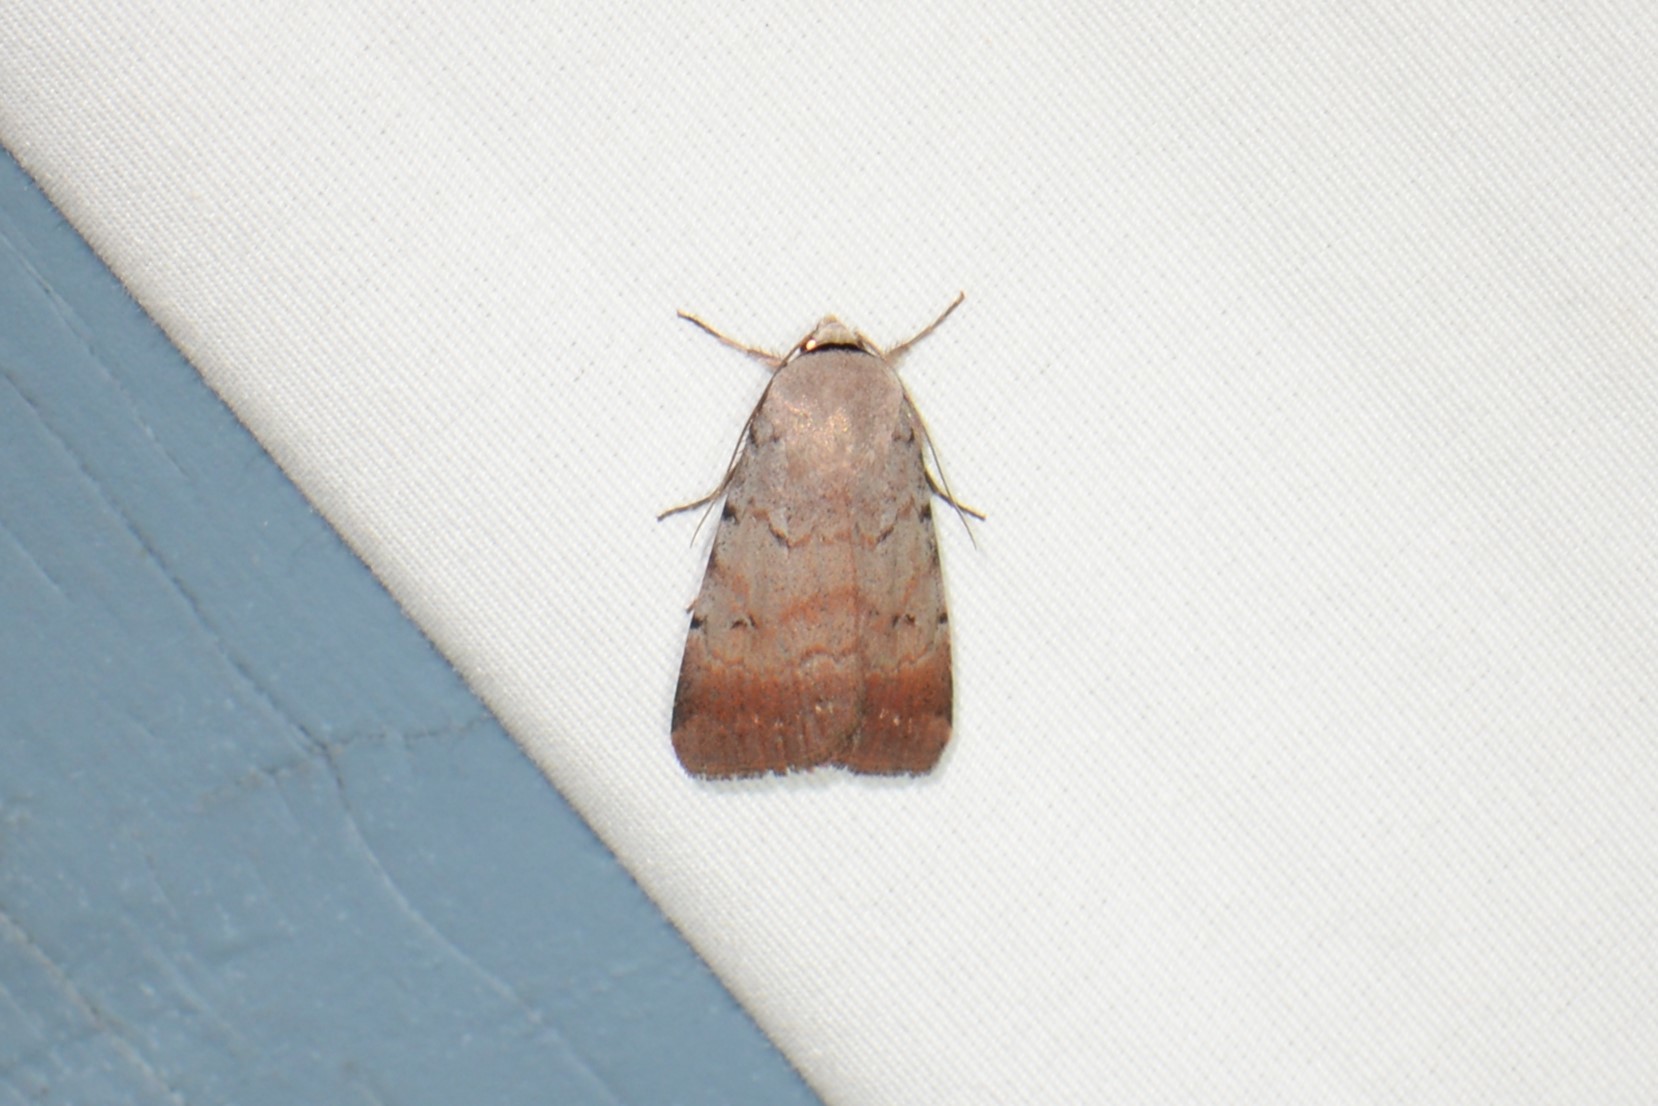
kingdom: Animalia
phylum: Arthropoda
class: Insecta
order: Lepidoptera
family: Noctuidae
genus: Anicla
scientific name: Anicla illapsa
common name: Snowy dart
